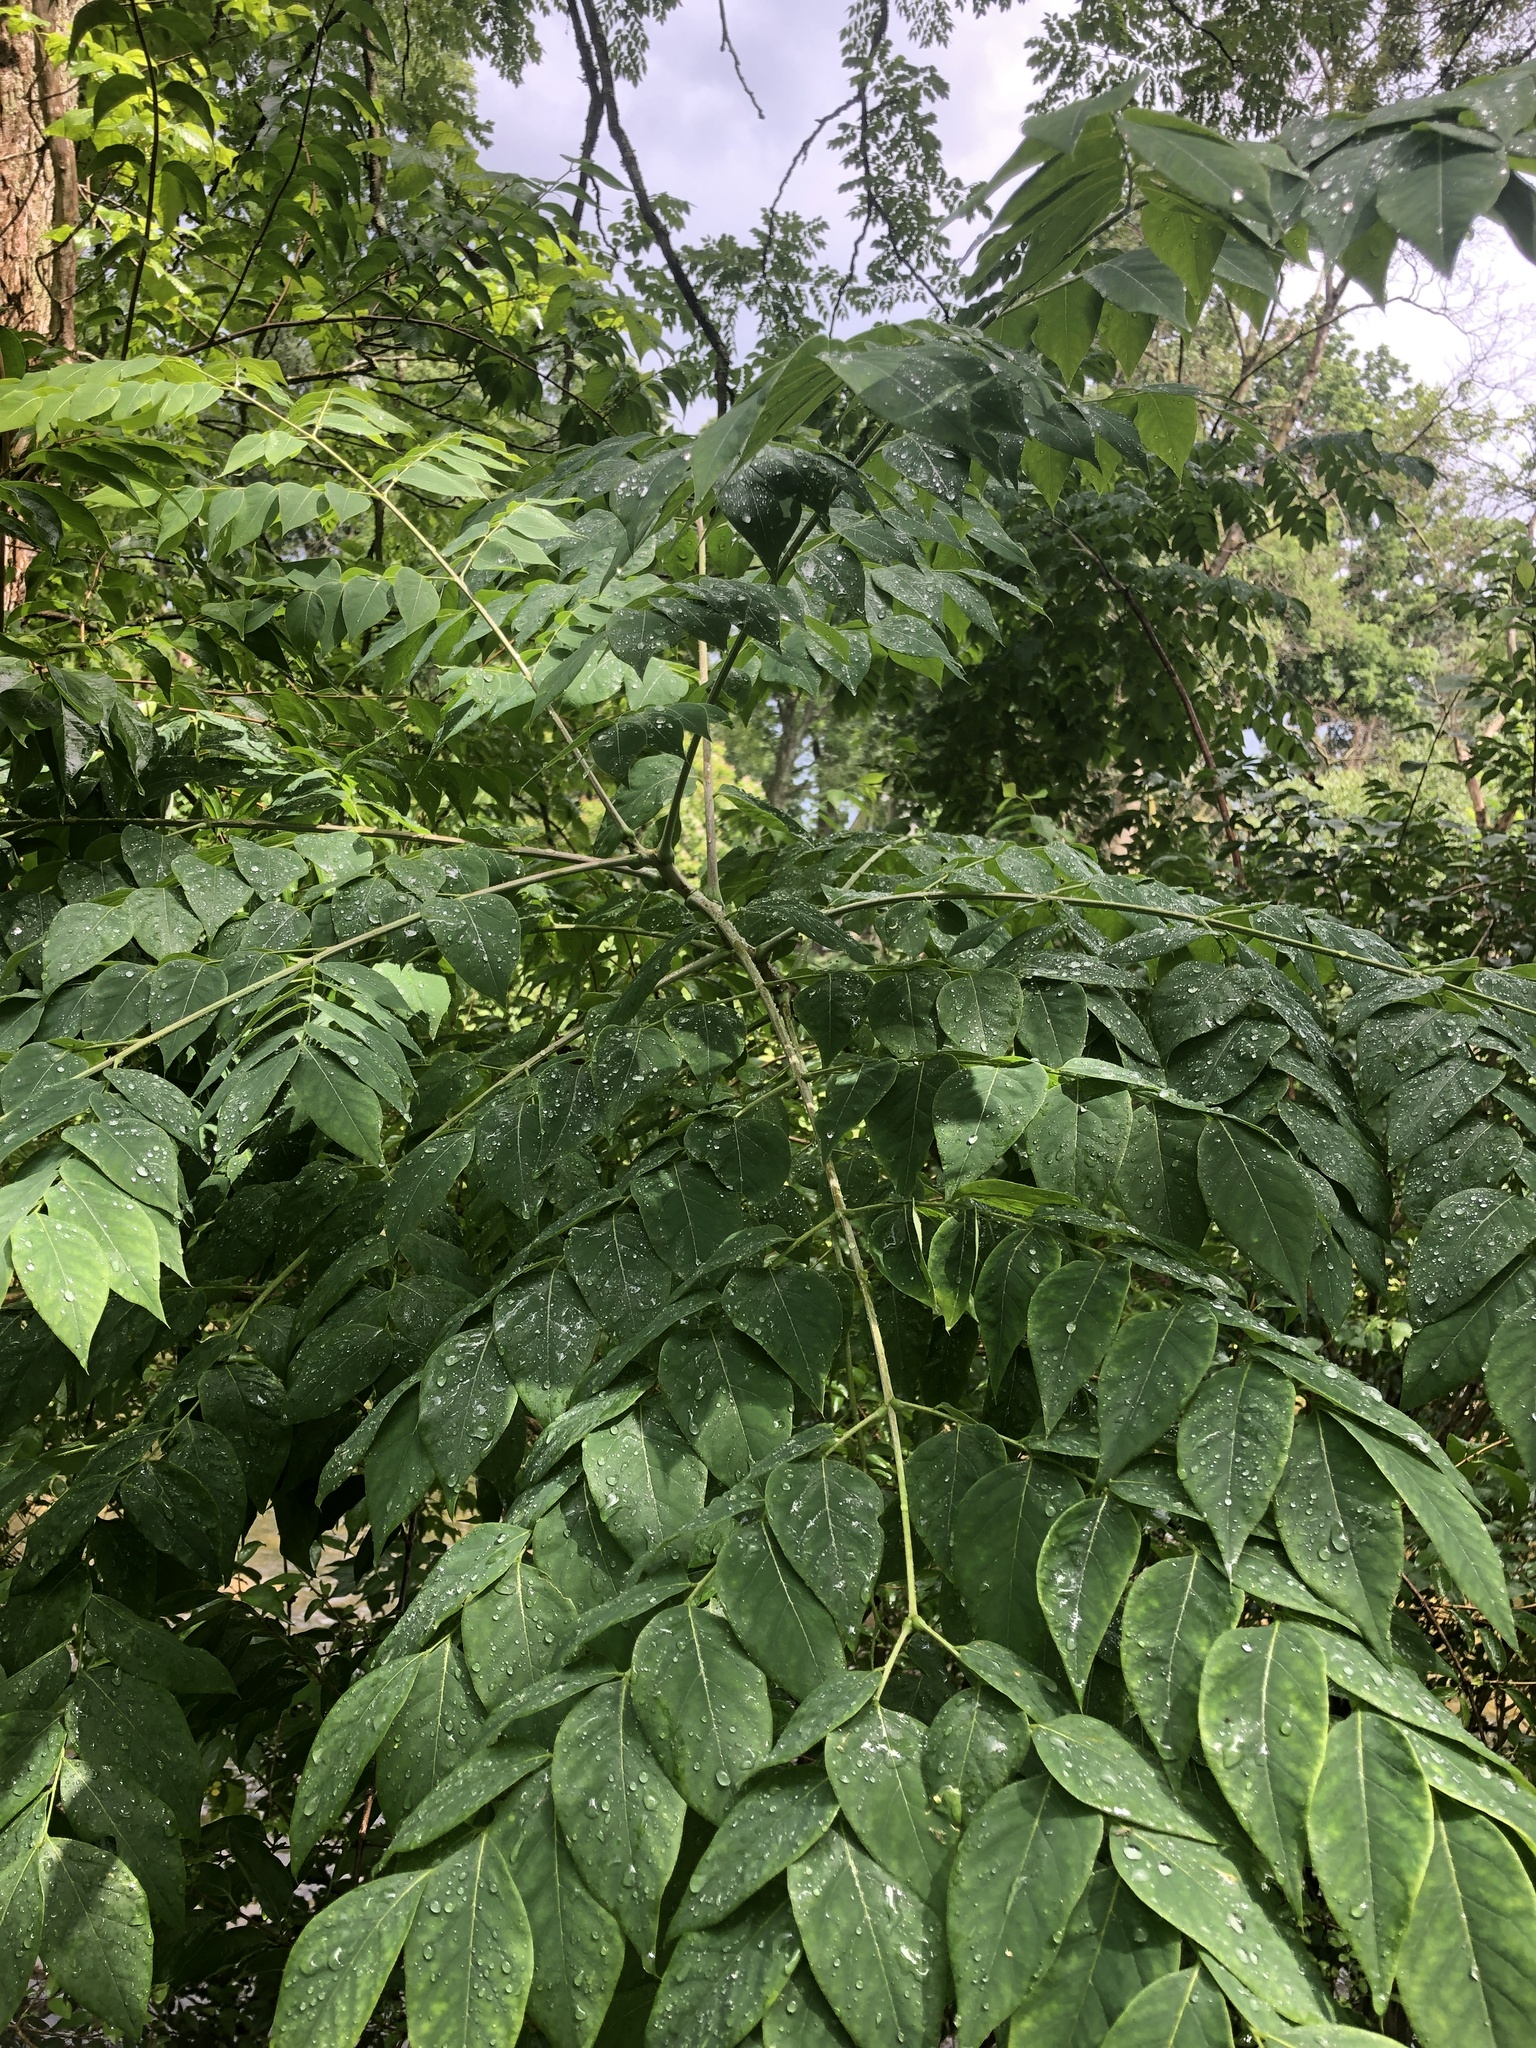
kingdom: Plantae
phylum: Tracheophyta
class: Magnoliopsida
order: Fabales
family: Fabaceae
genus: Gymnocladus
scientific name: Gymnocladus dioicus
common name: Kentucky coffee-tree
